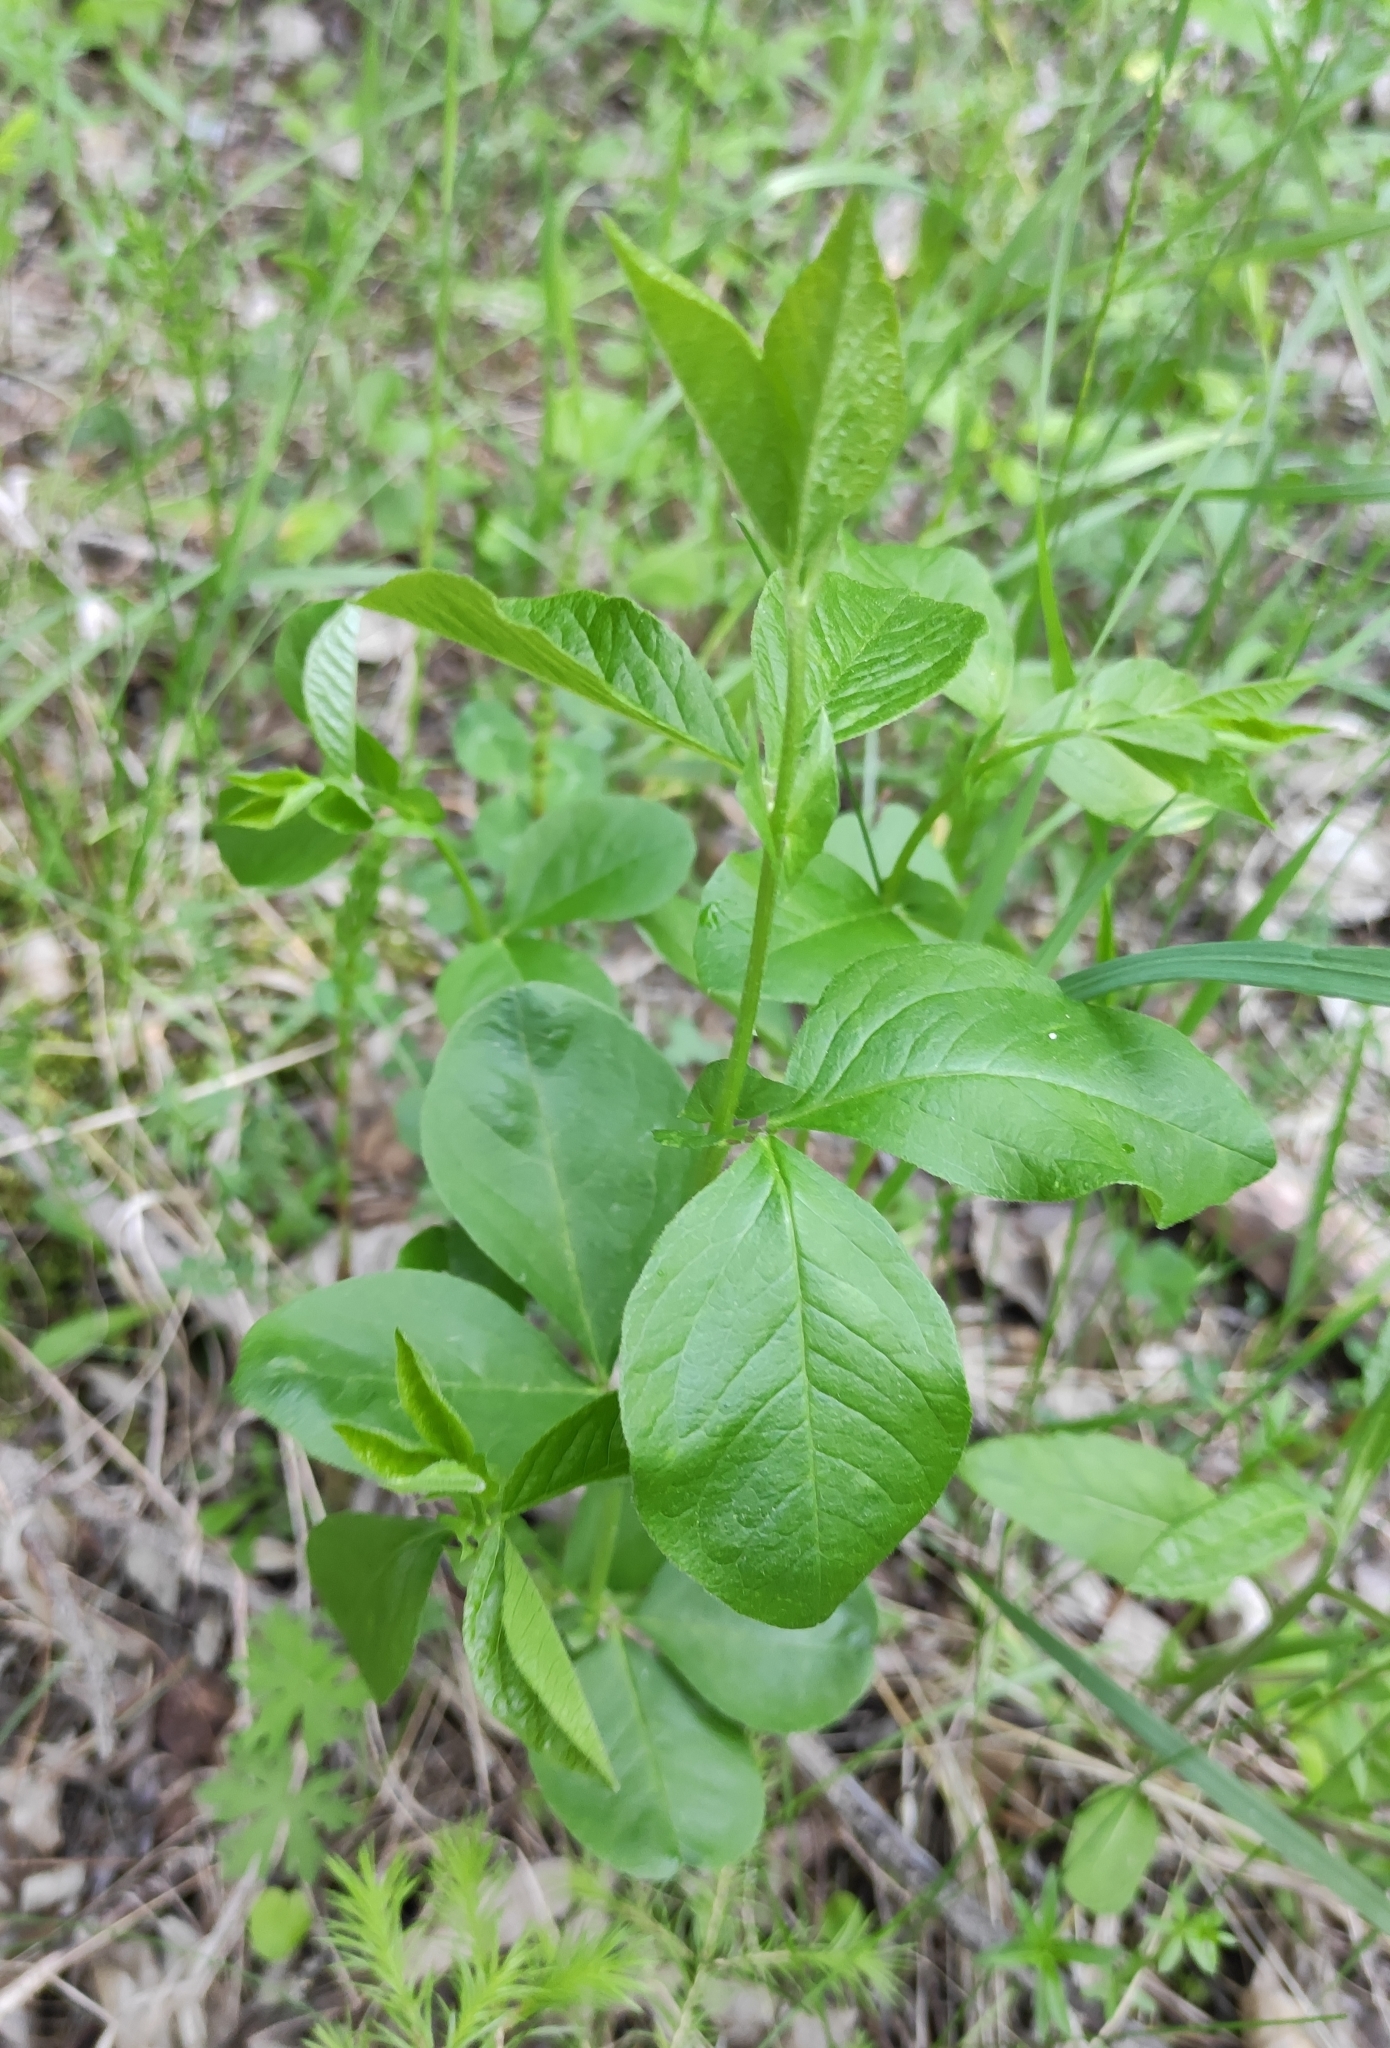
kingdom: Plantae
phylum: Tracheophyta
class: Magnoliopsida
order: Fabales
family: Fabaceae
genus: Vicia
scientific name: Vicia unijuga
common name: Two-leaf vetch
